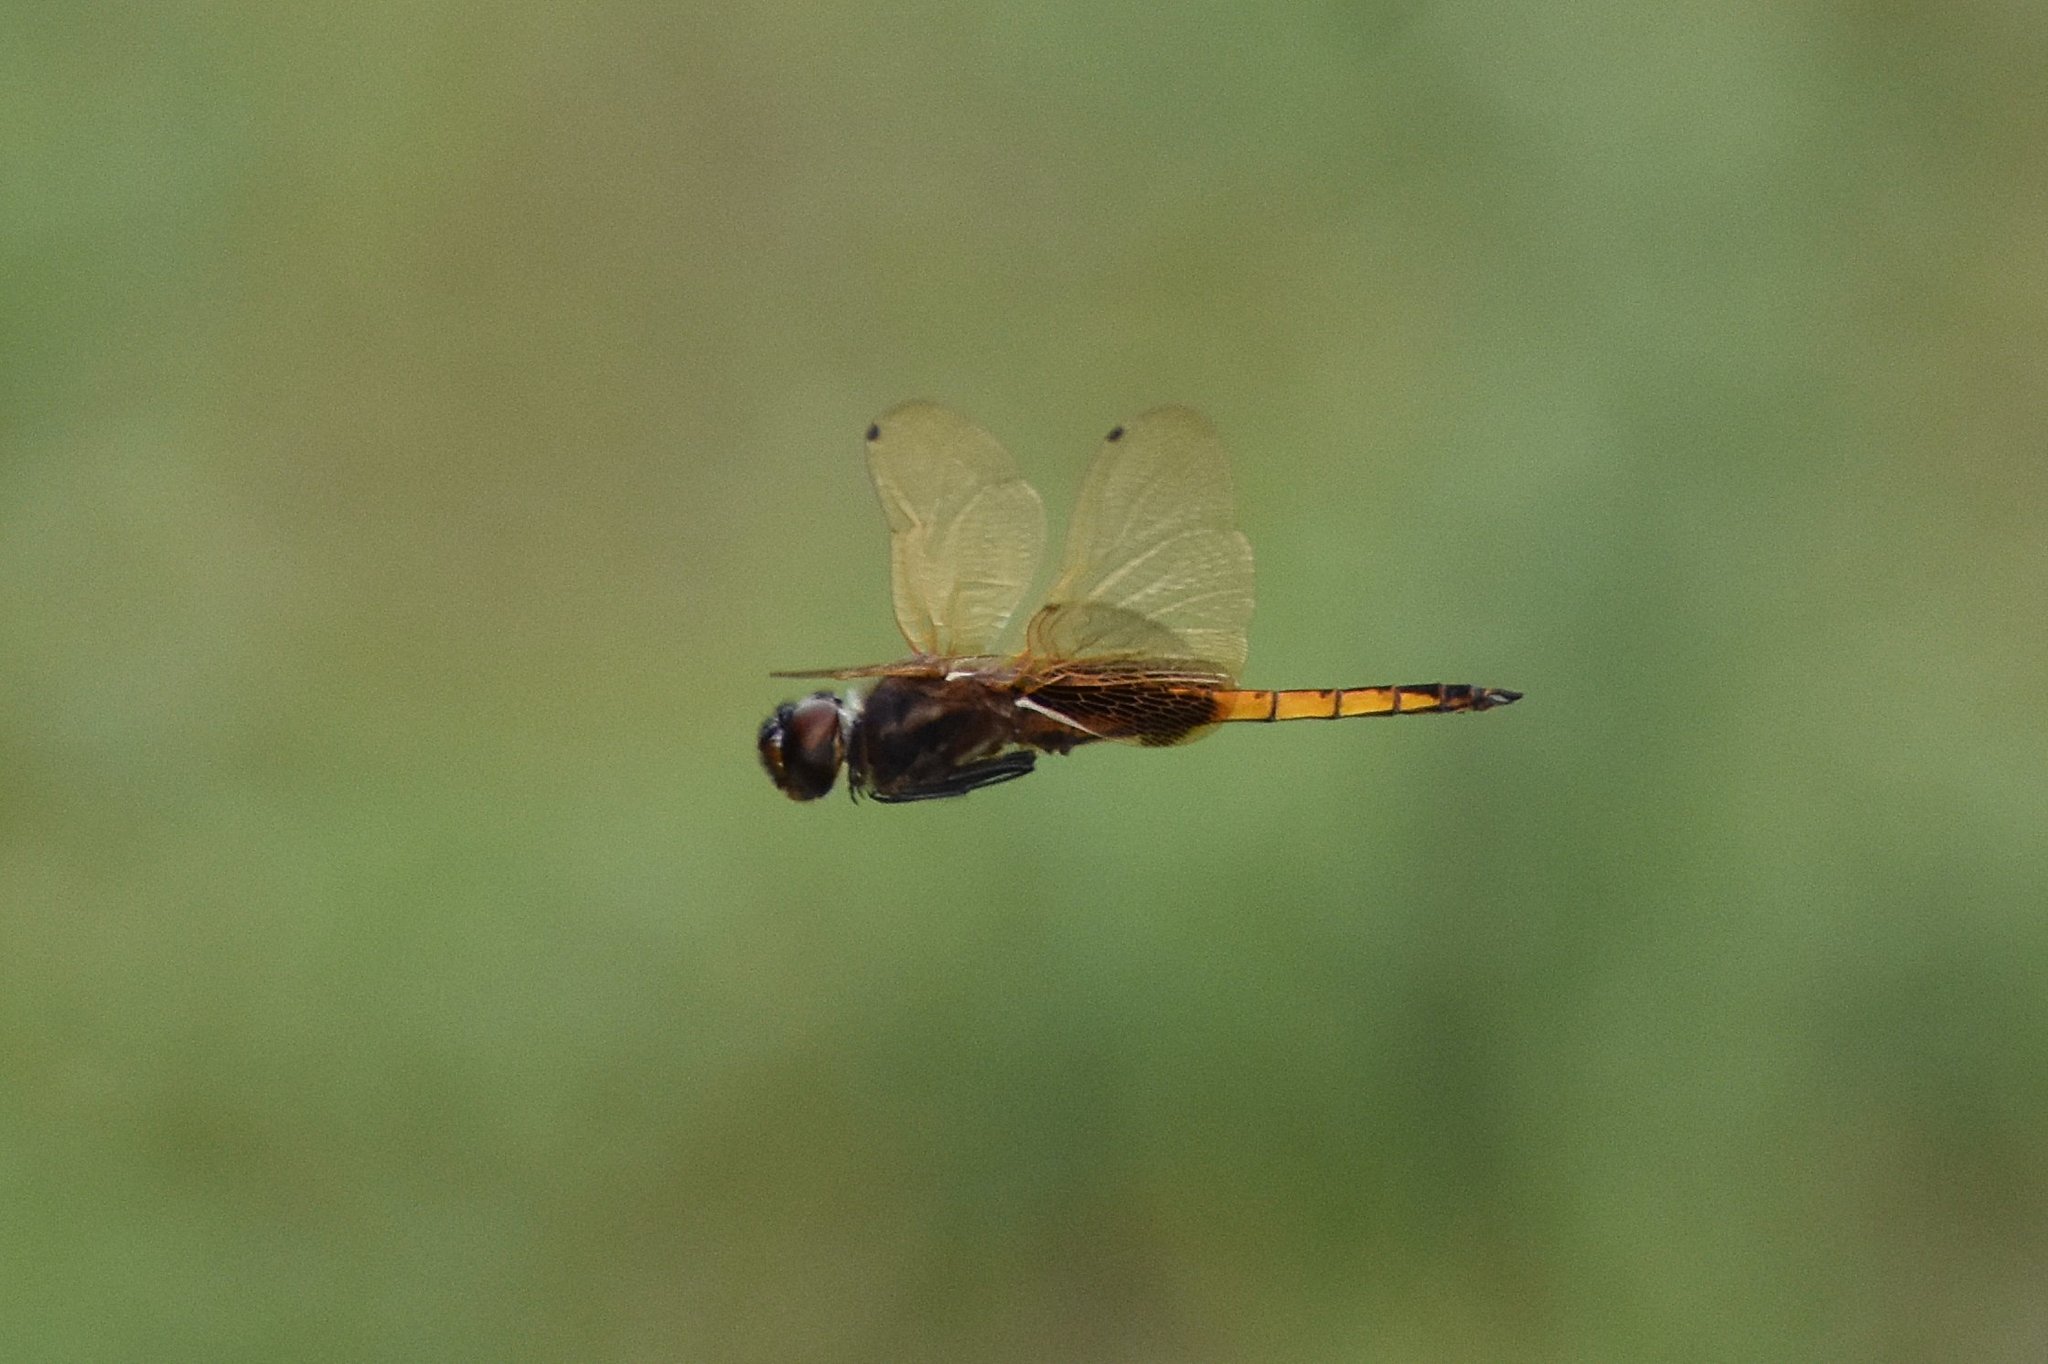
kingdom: Animalia
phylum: Arthropoda
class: Insecta
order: Odonata
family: Libellulidae
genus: Miathyria
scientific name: Miathyria marcella
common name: Hyacinth glider
